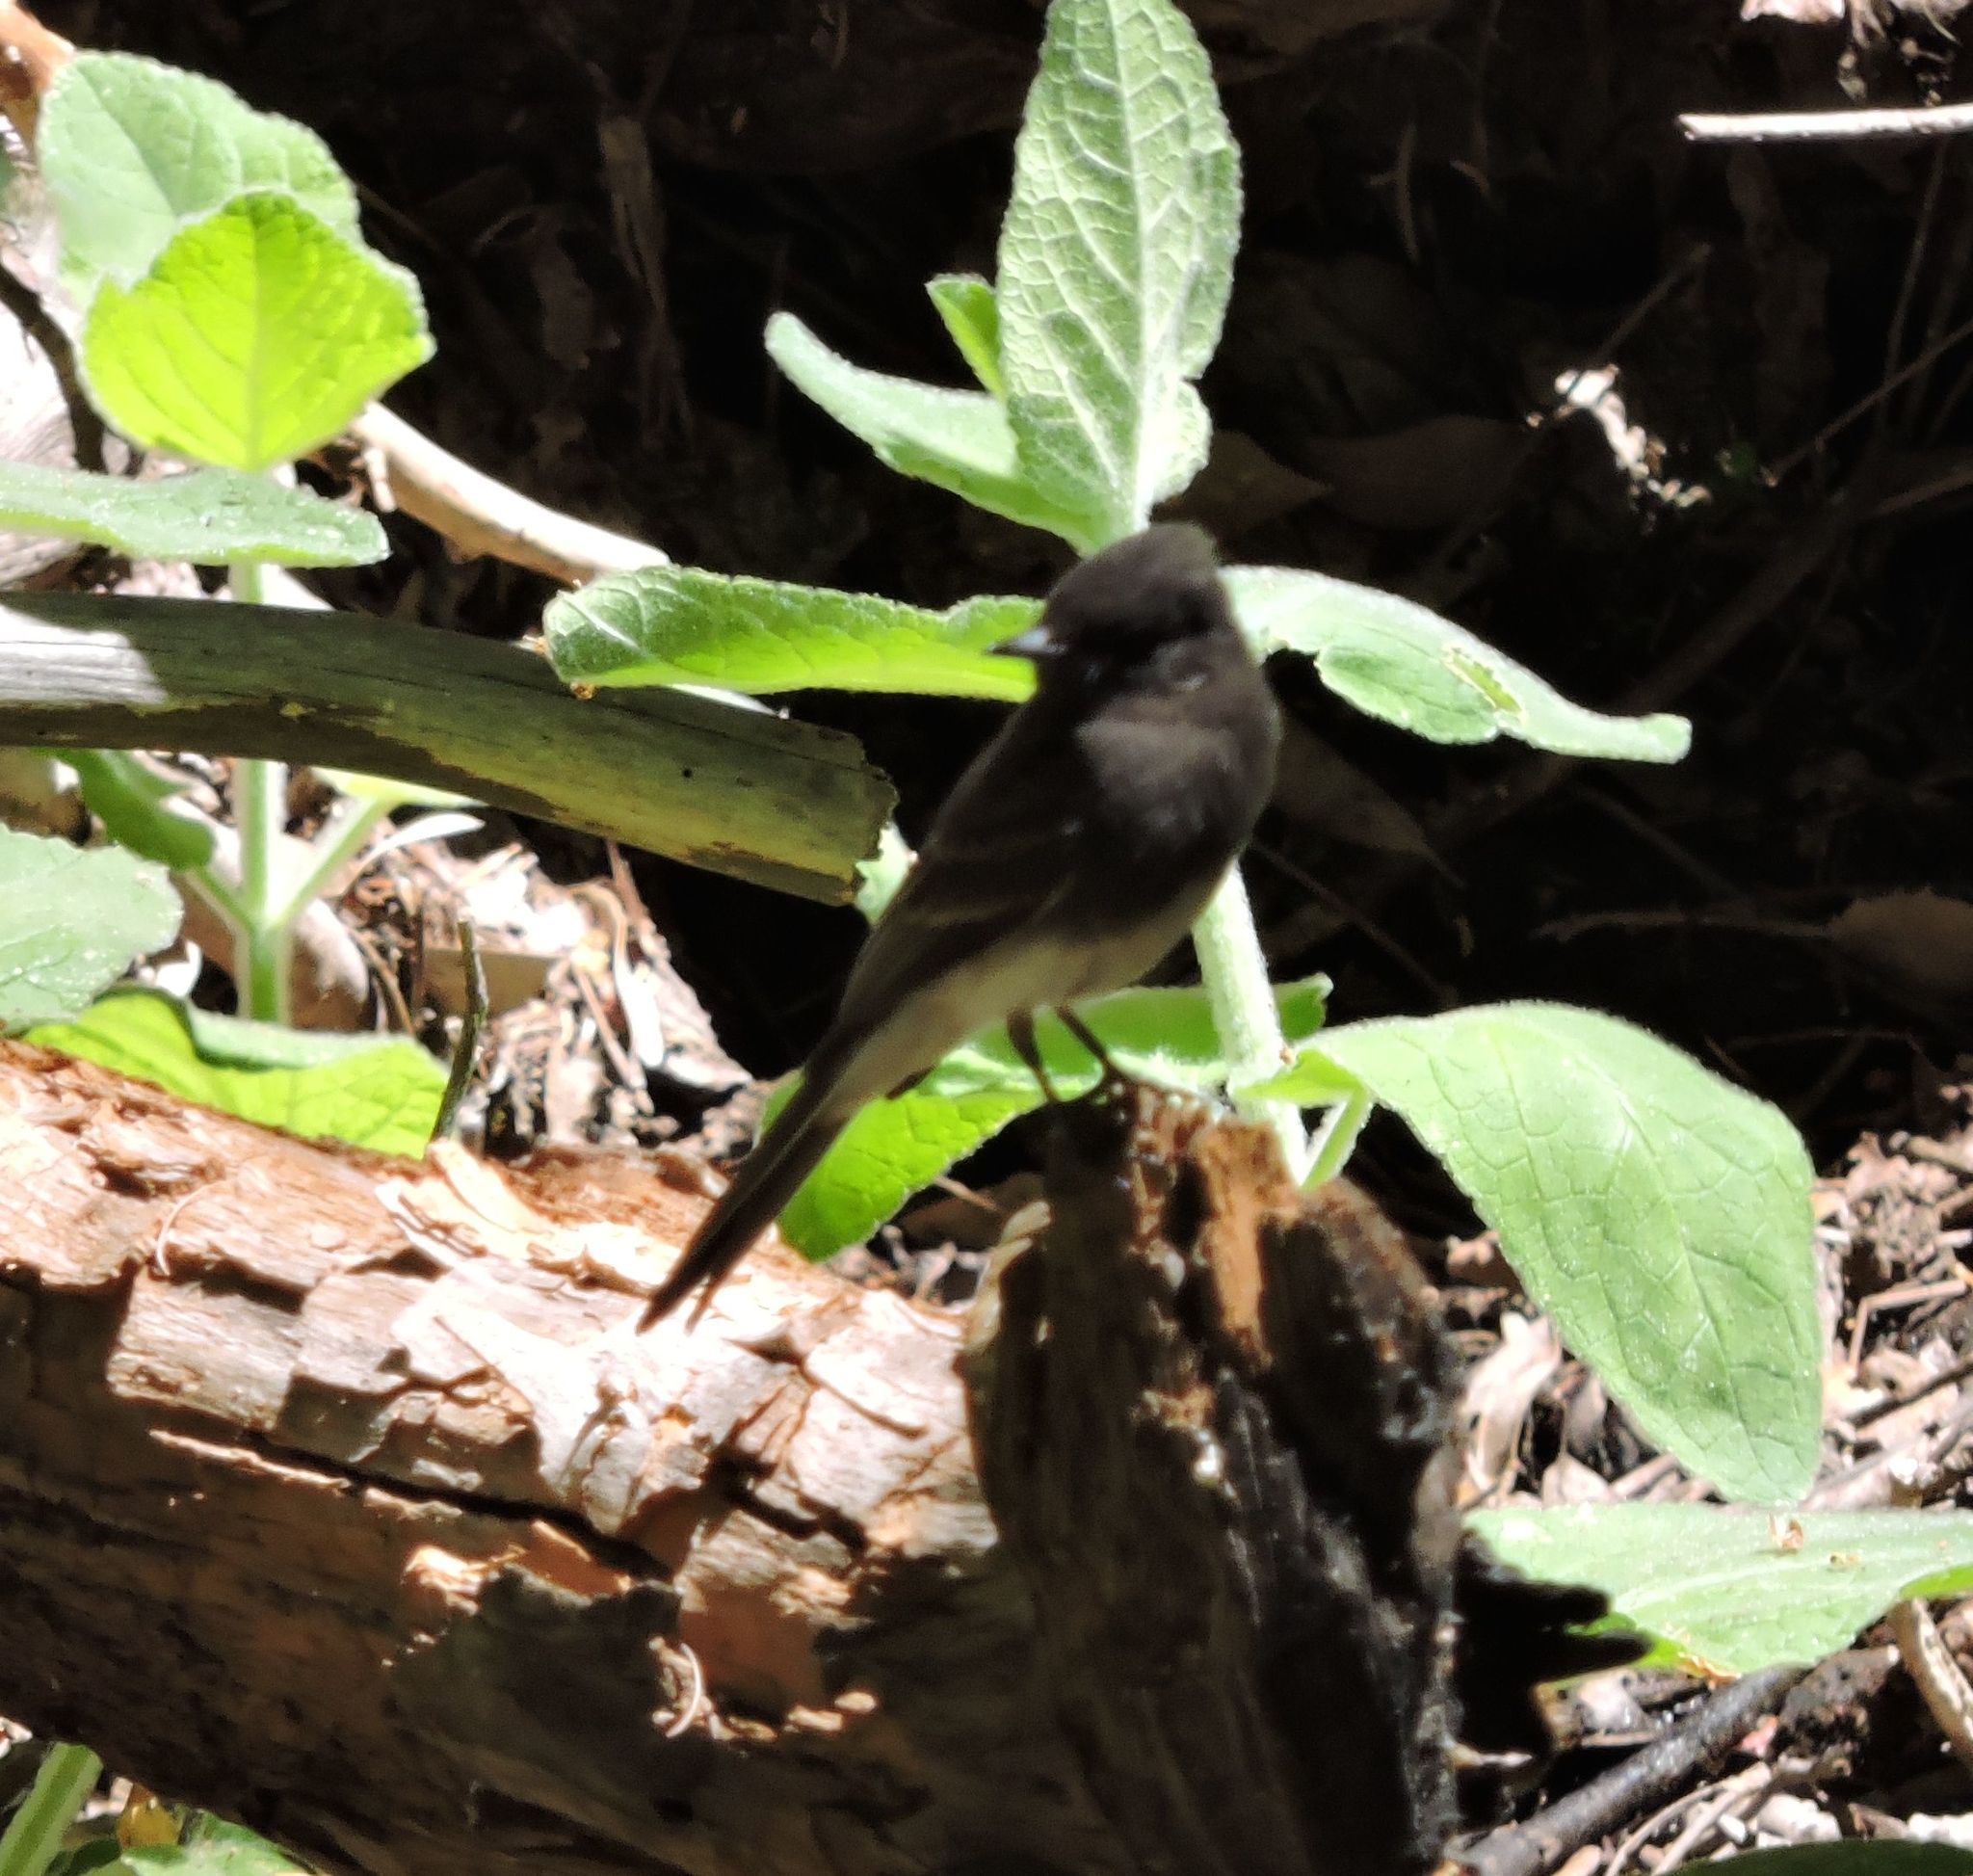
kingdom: Animalia
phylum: Chordata
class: Aves
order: Passeriformes
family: Tyrannidae
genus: Sayornis
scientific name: Sayornis nigricans
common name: Black phoebe
